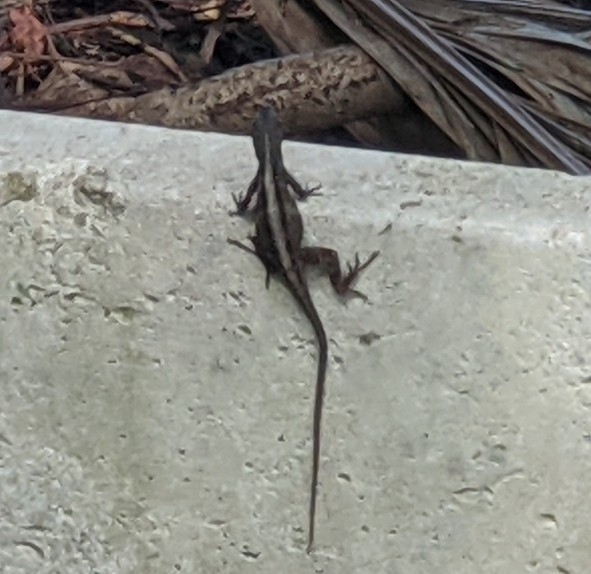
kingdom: Animalia
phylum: Chordata
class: Squamata
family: Dactyloidae
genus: Anolis
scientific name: Anolis sagrei
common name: Brown anole
